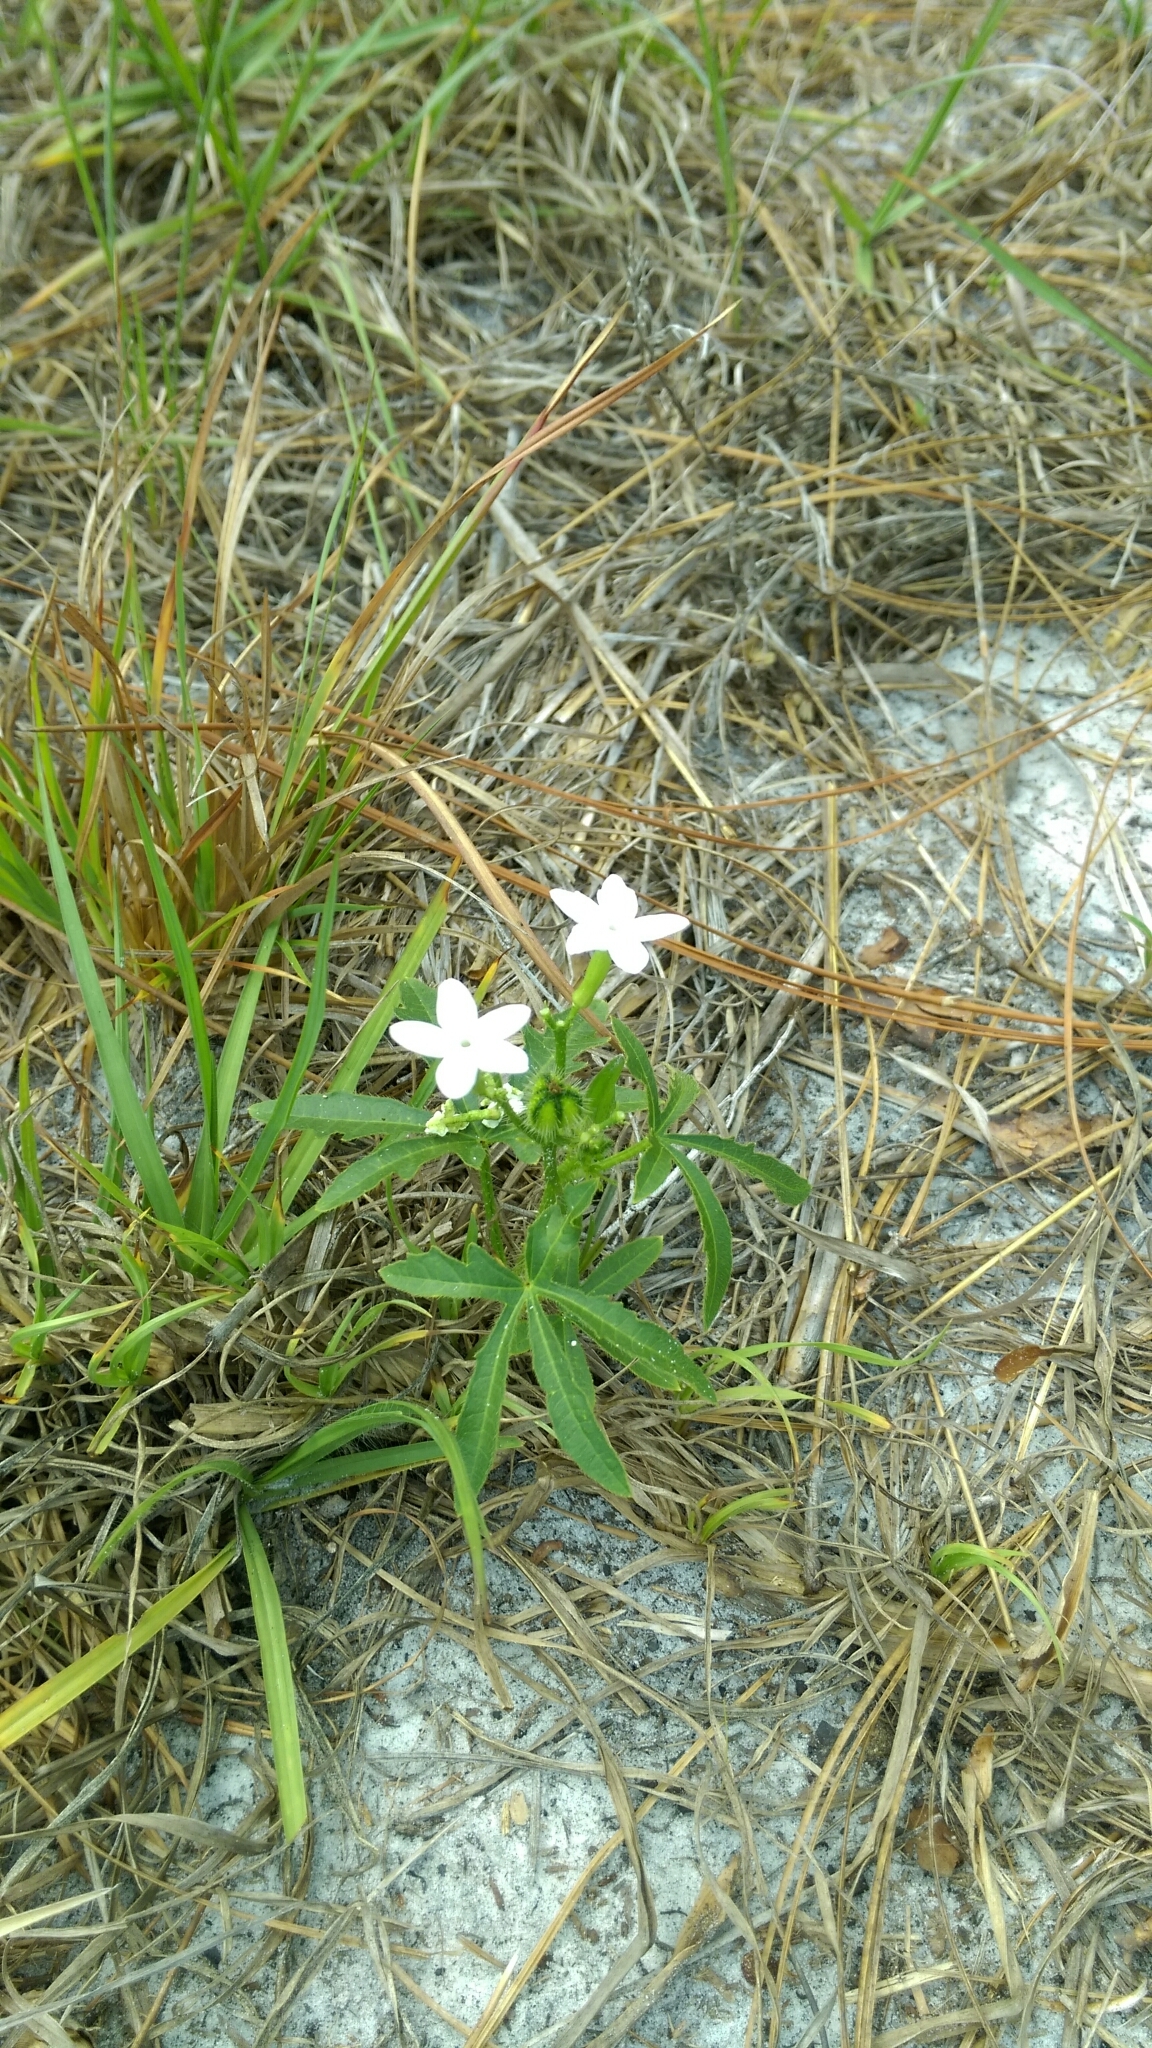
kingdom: Plantae
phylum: Tracheophyta
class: Magnoliopsida
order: Malpighiales
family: Euphorbiaceae
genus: Cnidoscolus
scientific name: Cnidoscolus stimulosus
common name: Bull-nettle
